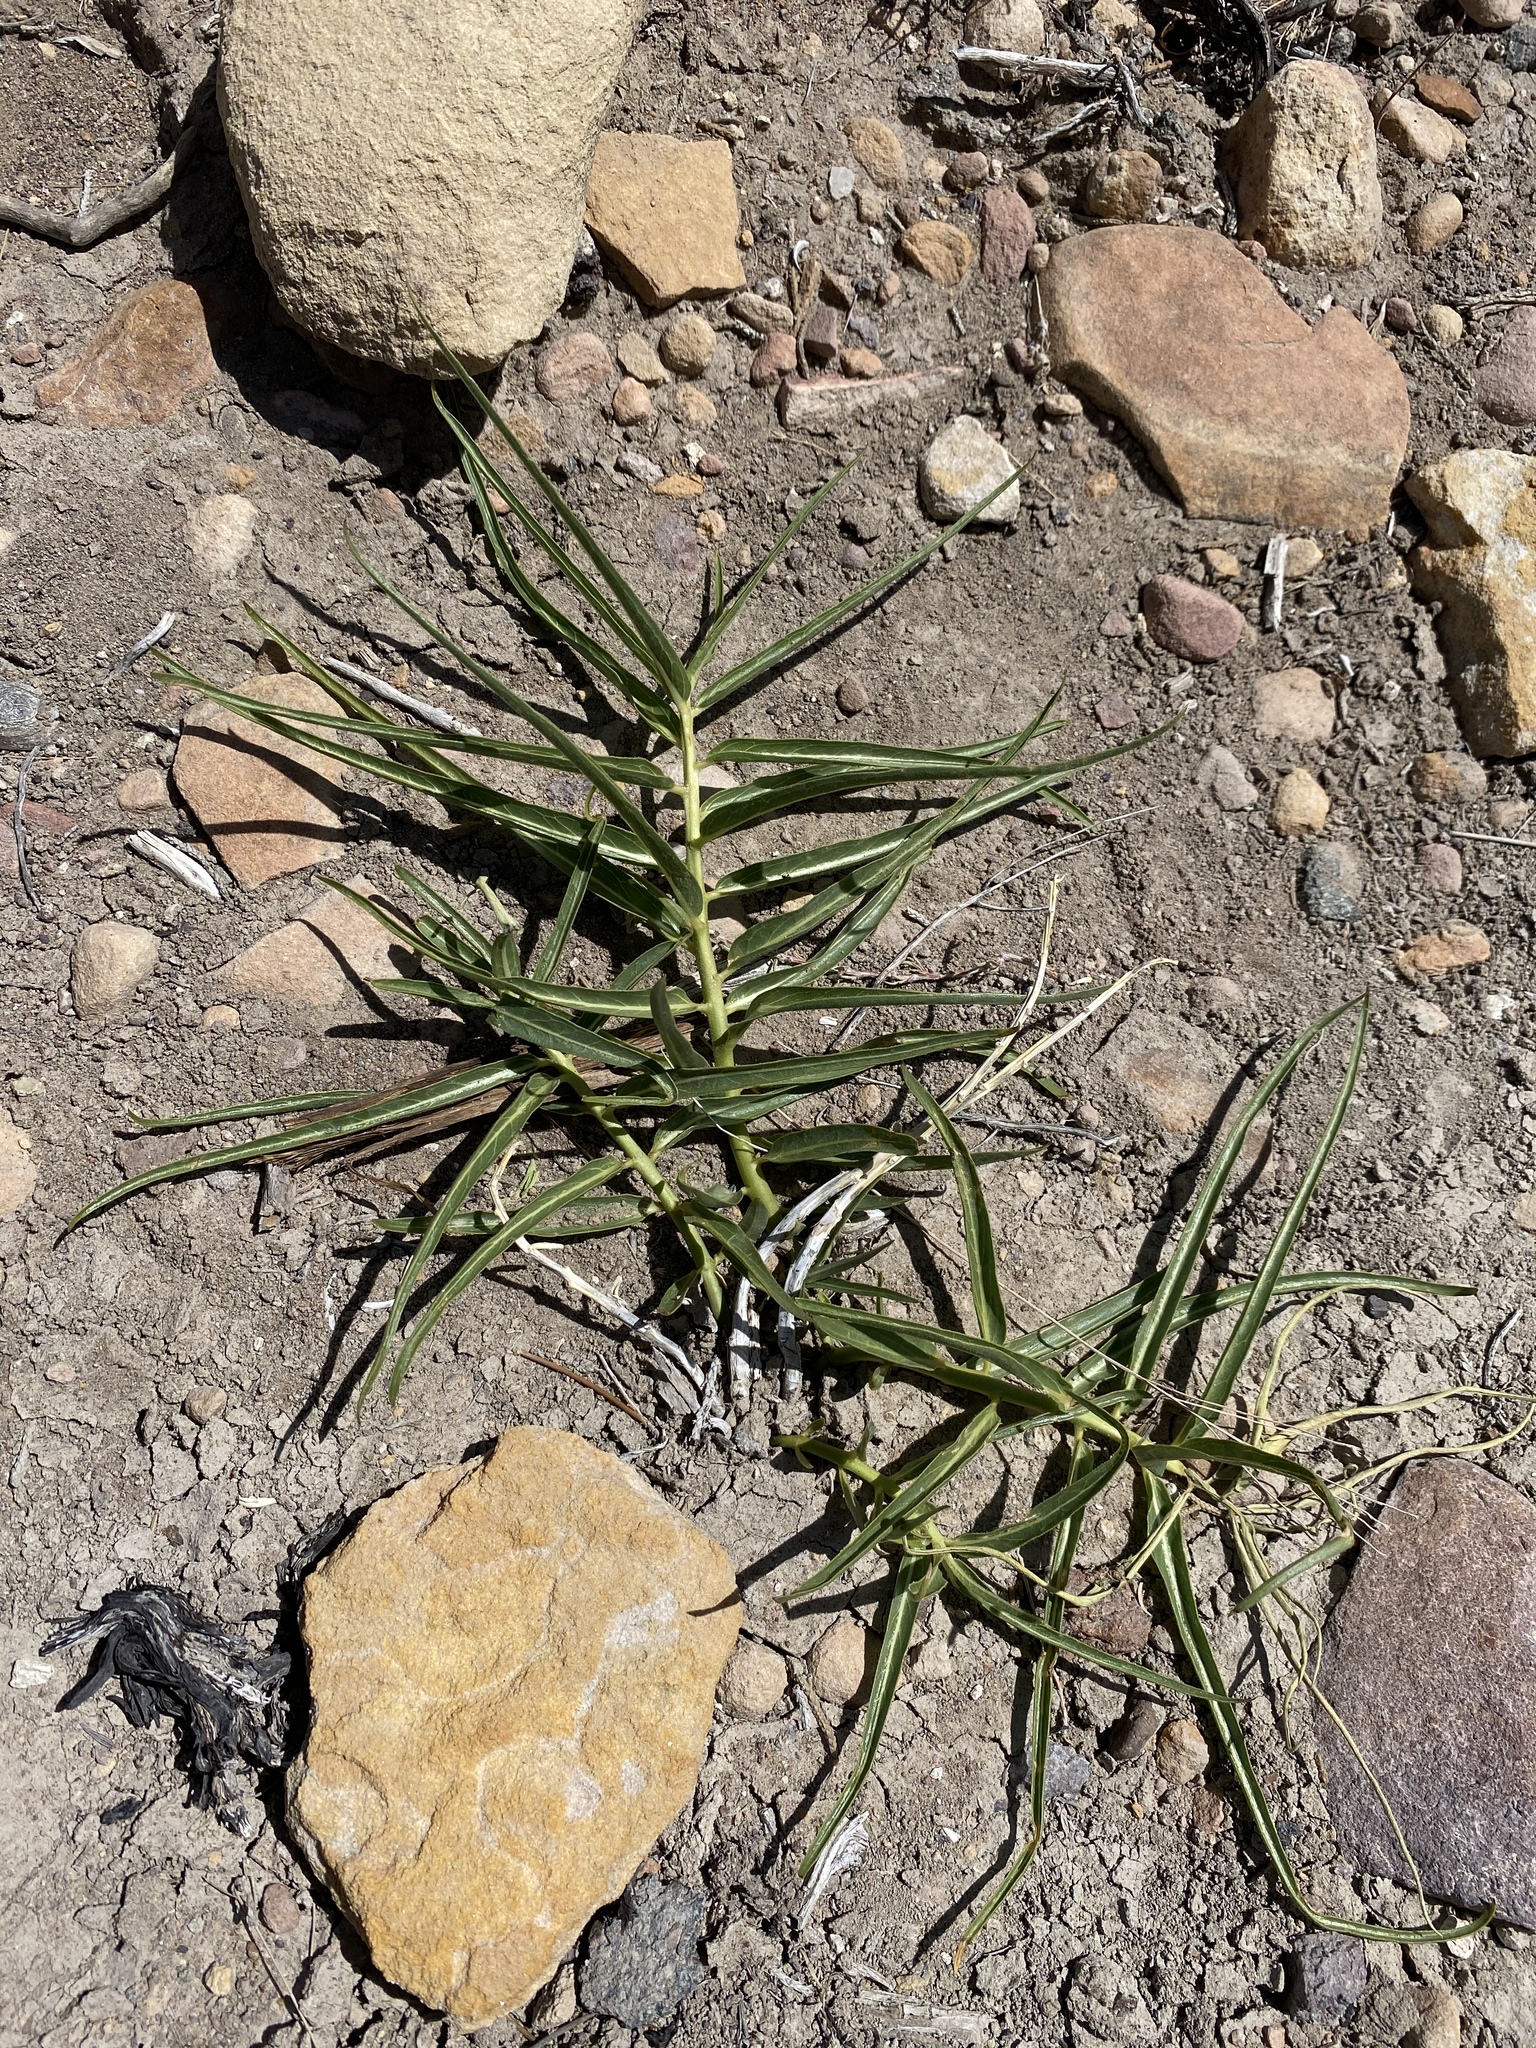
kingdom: Plantae
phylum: Tracheophyta
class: Magnoliopsida
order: Gentianales
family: Apocynaceae
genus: Asclepias
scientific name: Asclepias asperula
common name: Antelope horns
